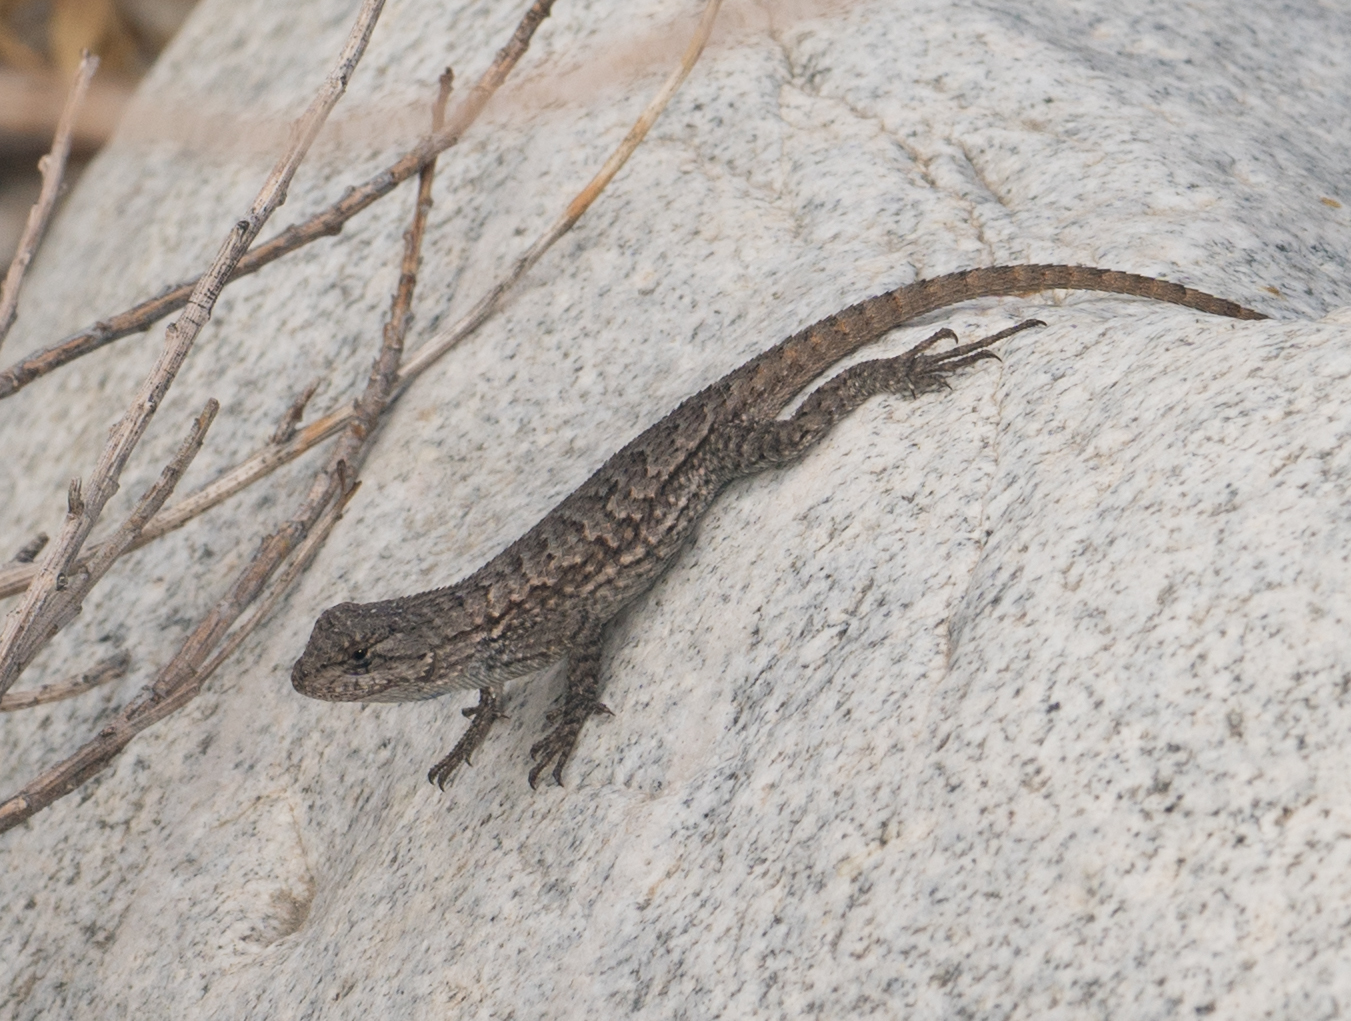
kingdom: Animalia
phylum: Chordata
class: Squamata
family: Phrynosomatidae
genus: Sceloporus
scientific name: Sceloporus occidentalis
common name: Western fence lizard
